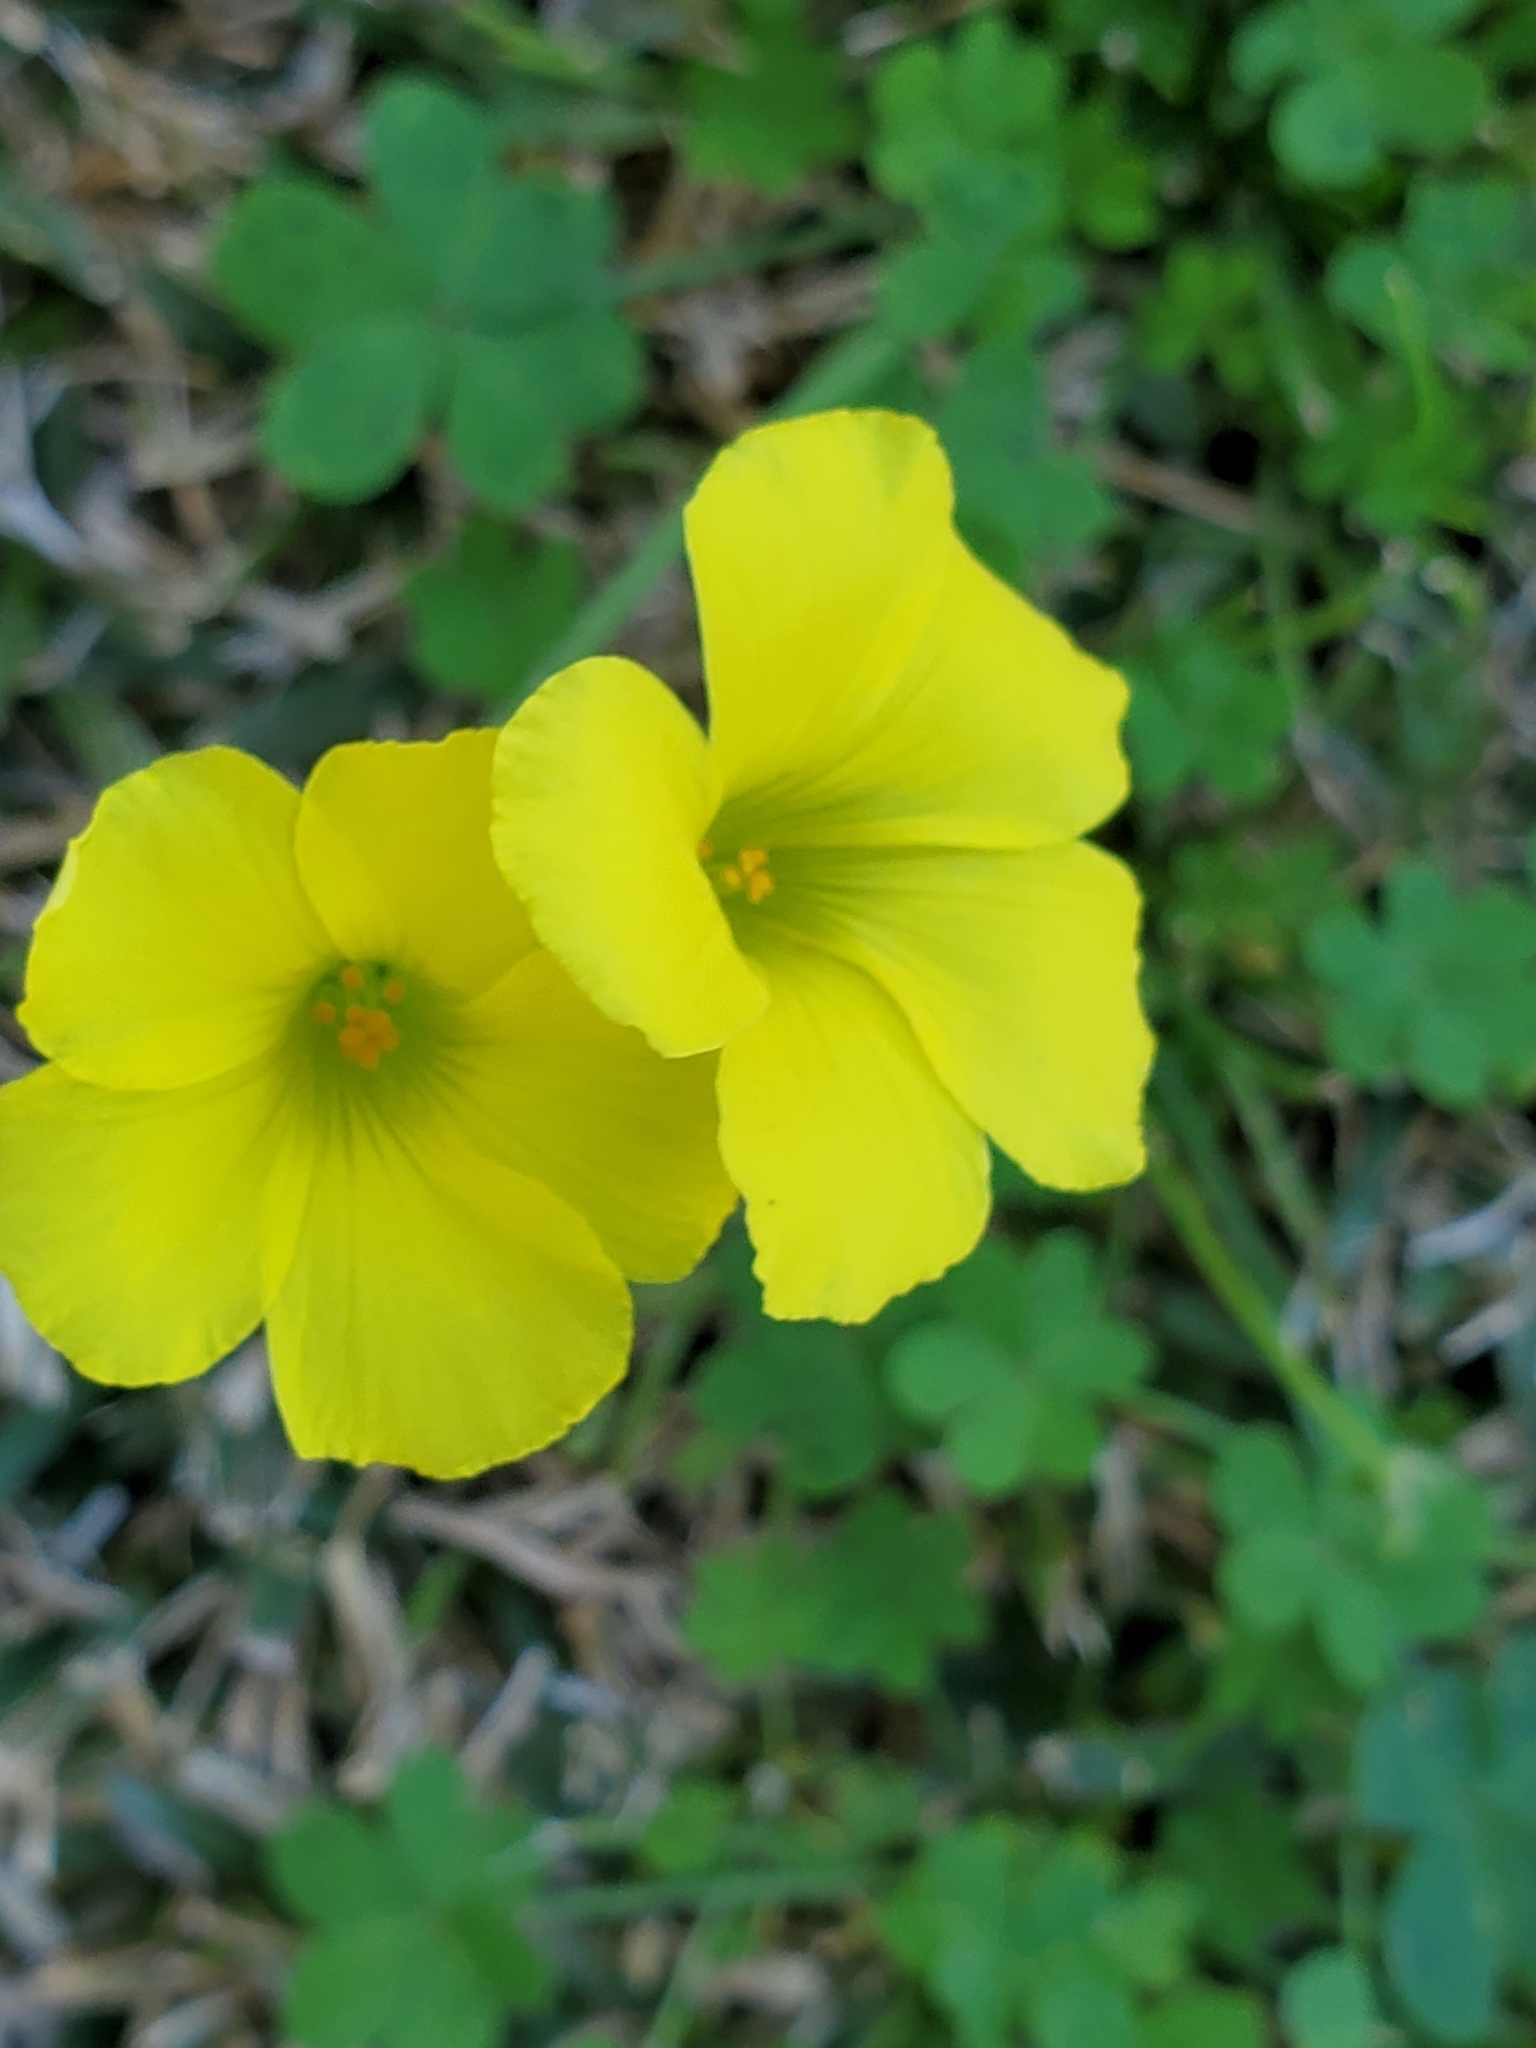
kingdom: Plantae
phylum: Tracheophyta
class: Magnoliopsida
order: Oxalidales
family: Oxalidaceae
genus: Oxalis
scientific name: Oxalis pes-caprae
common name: Bermuda-buttercup
